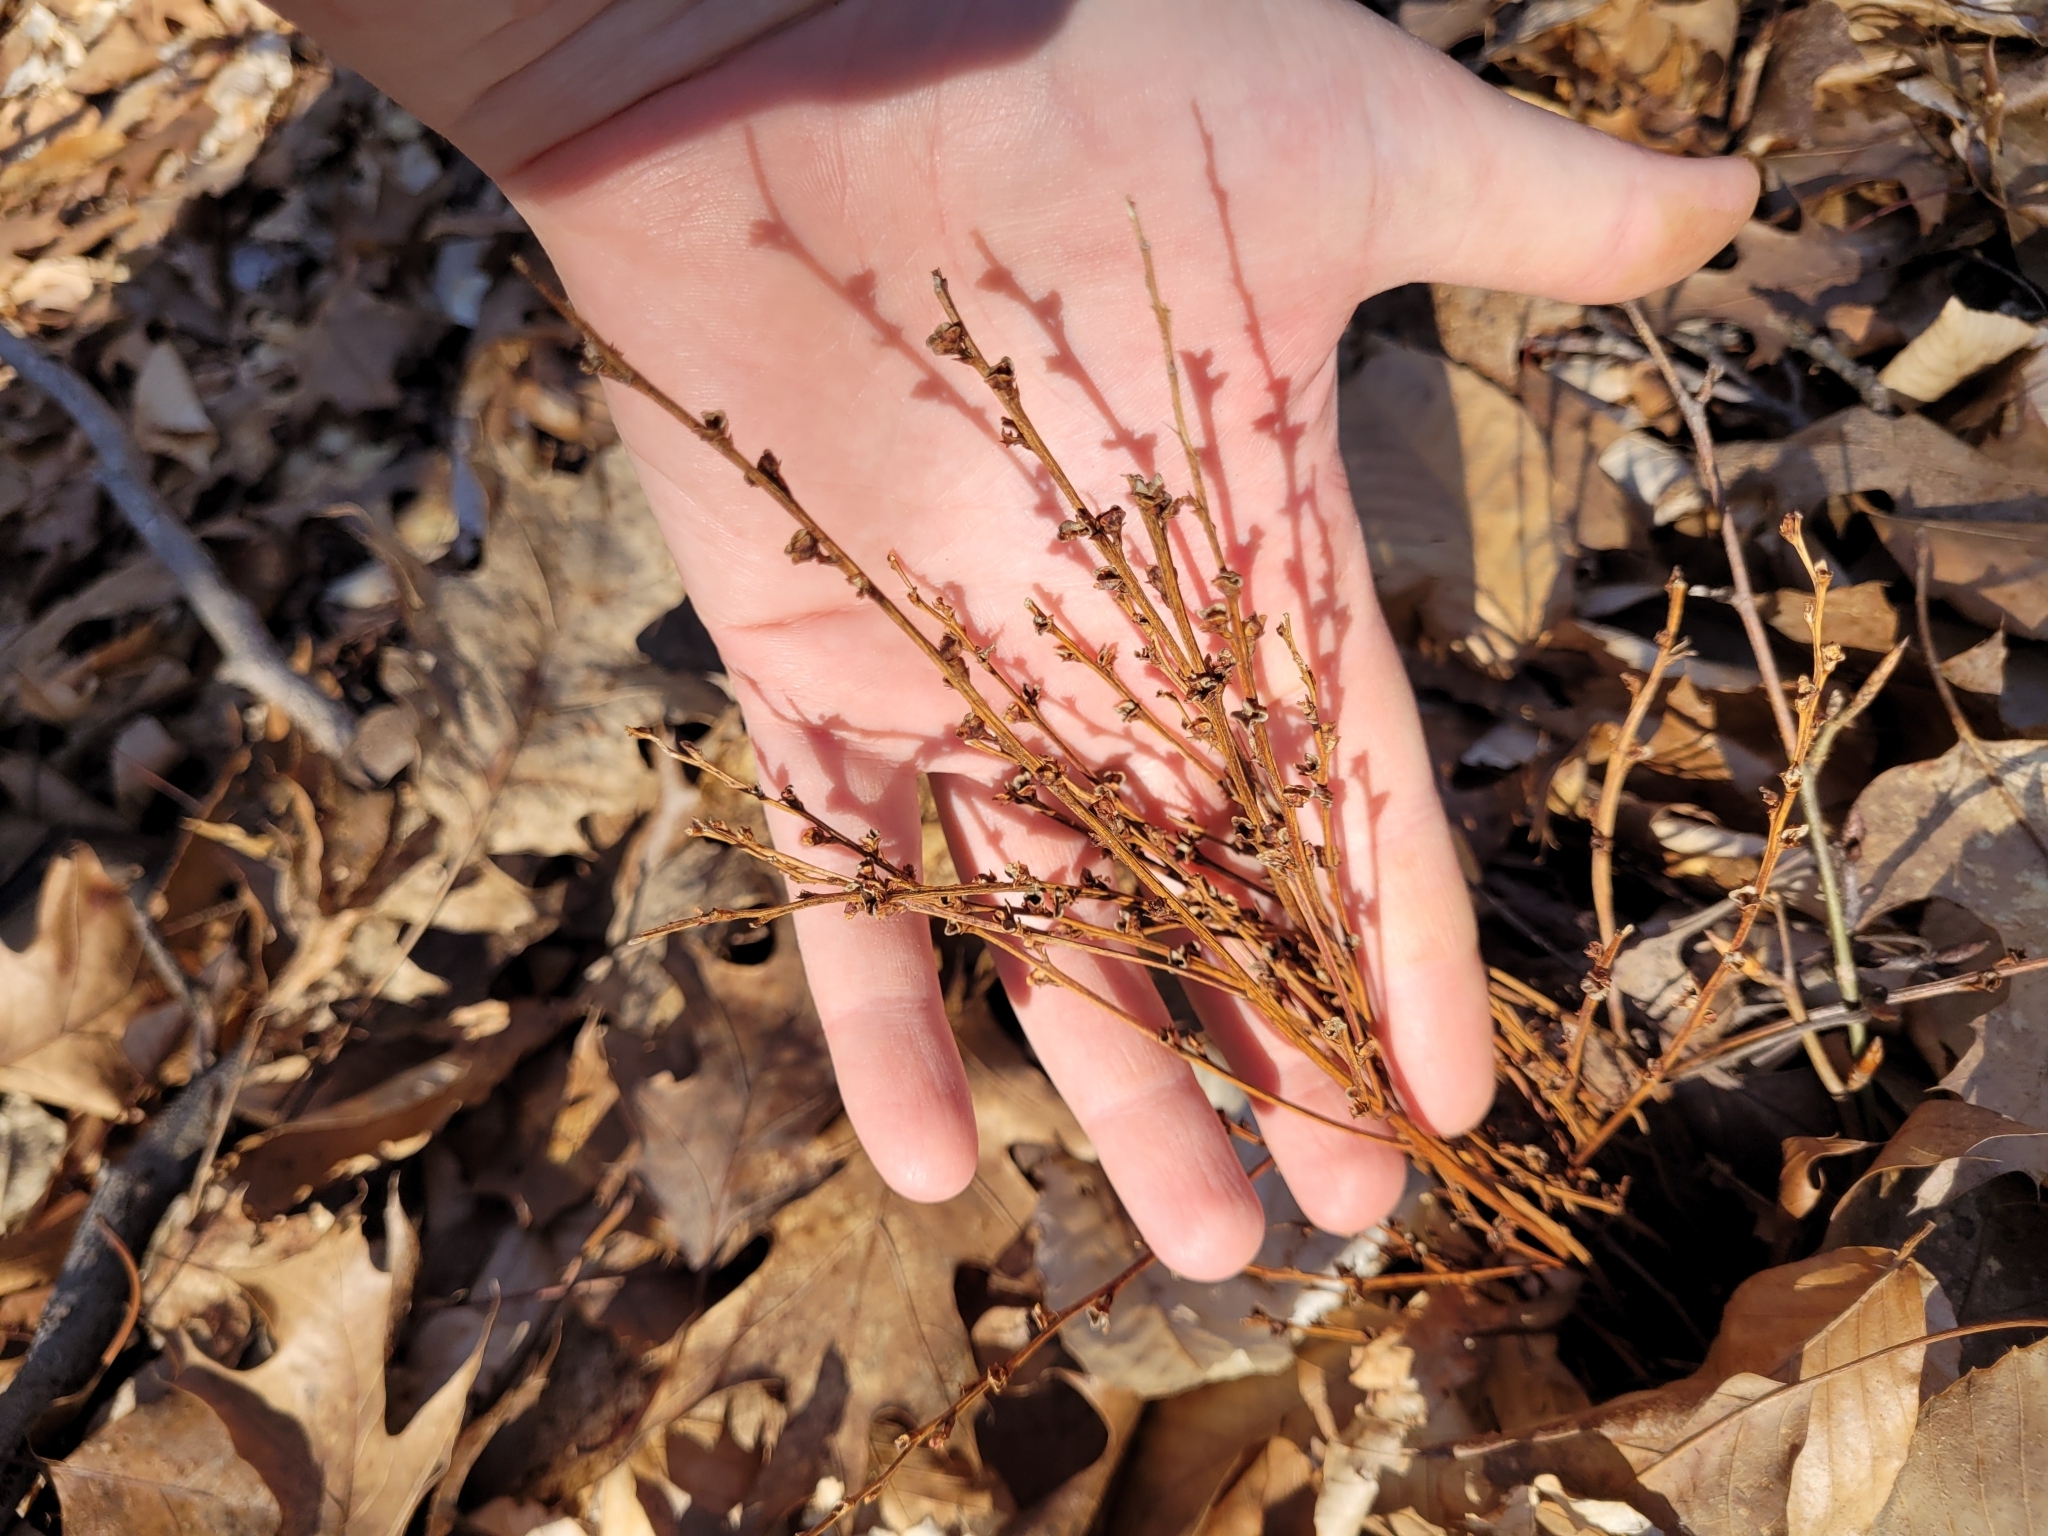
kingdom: Plantae
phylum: Tracheophyta
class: Magnoliopsida
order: Lamiales
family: Orobanchaceae
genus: Epifagus
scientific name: Epifagus virginiana
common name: Beechdrops
